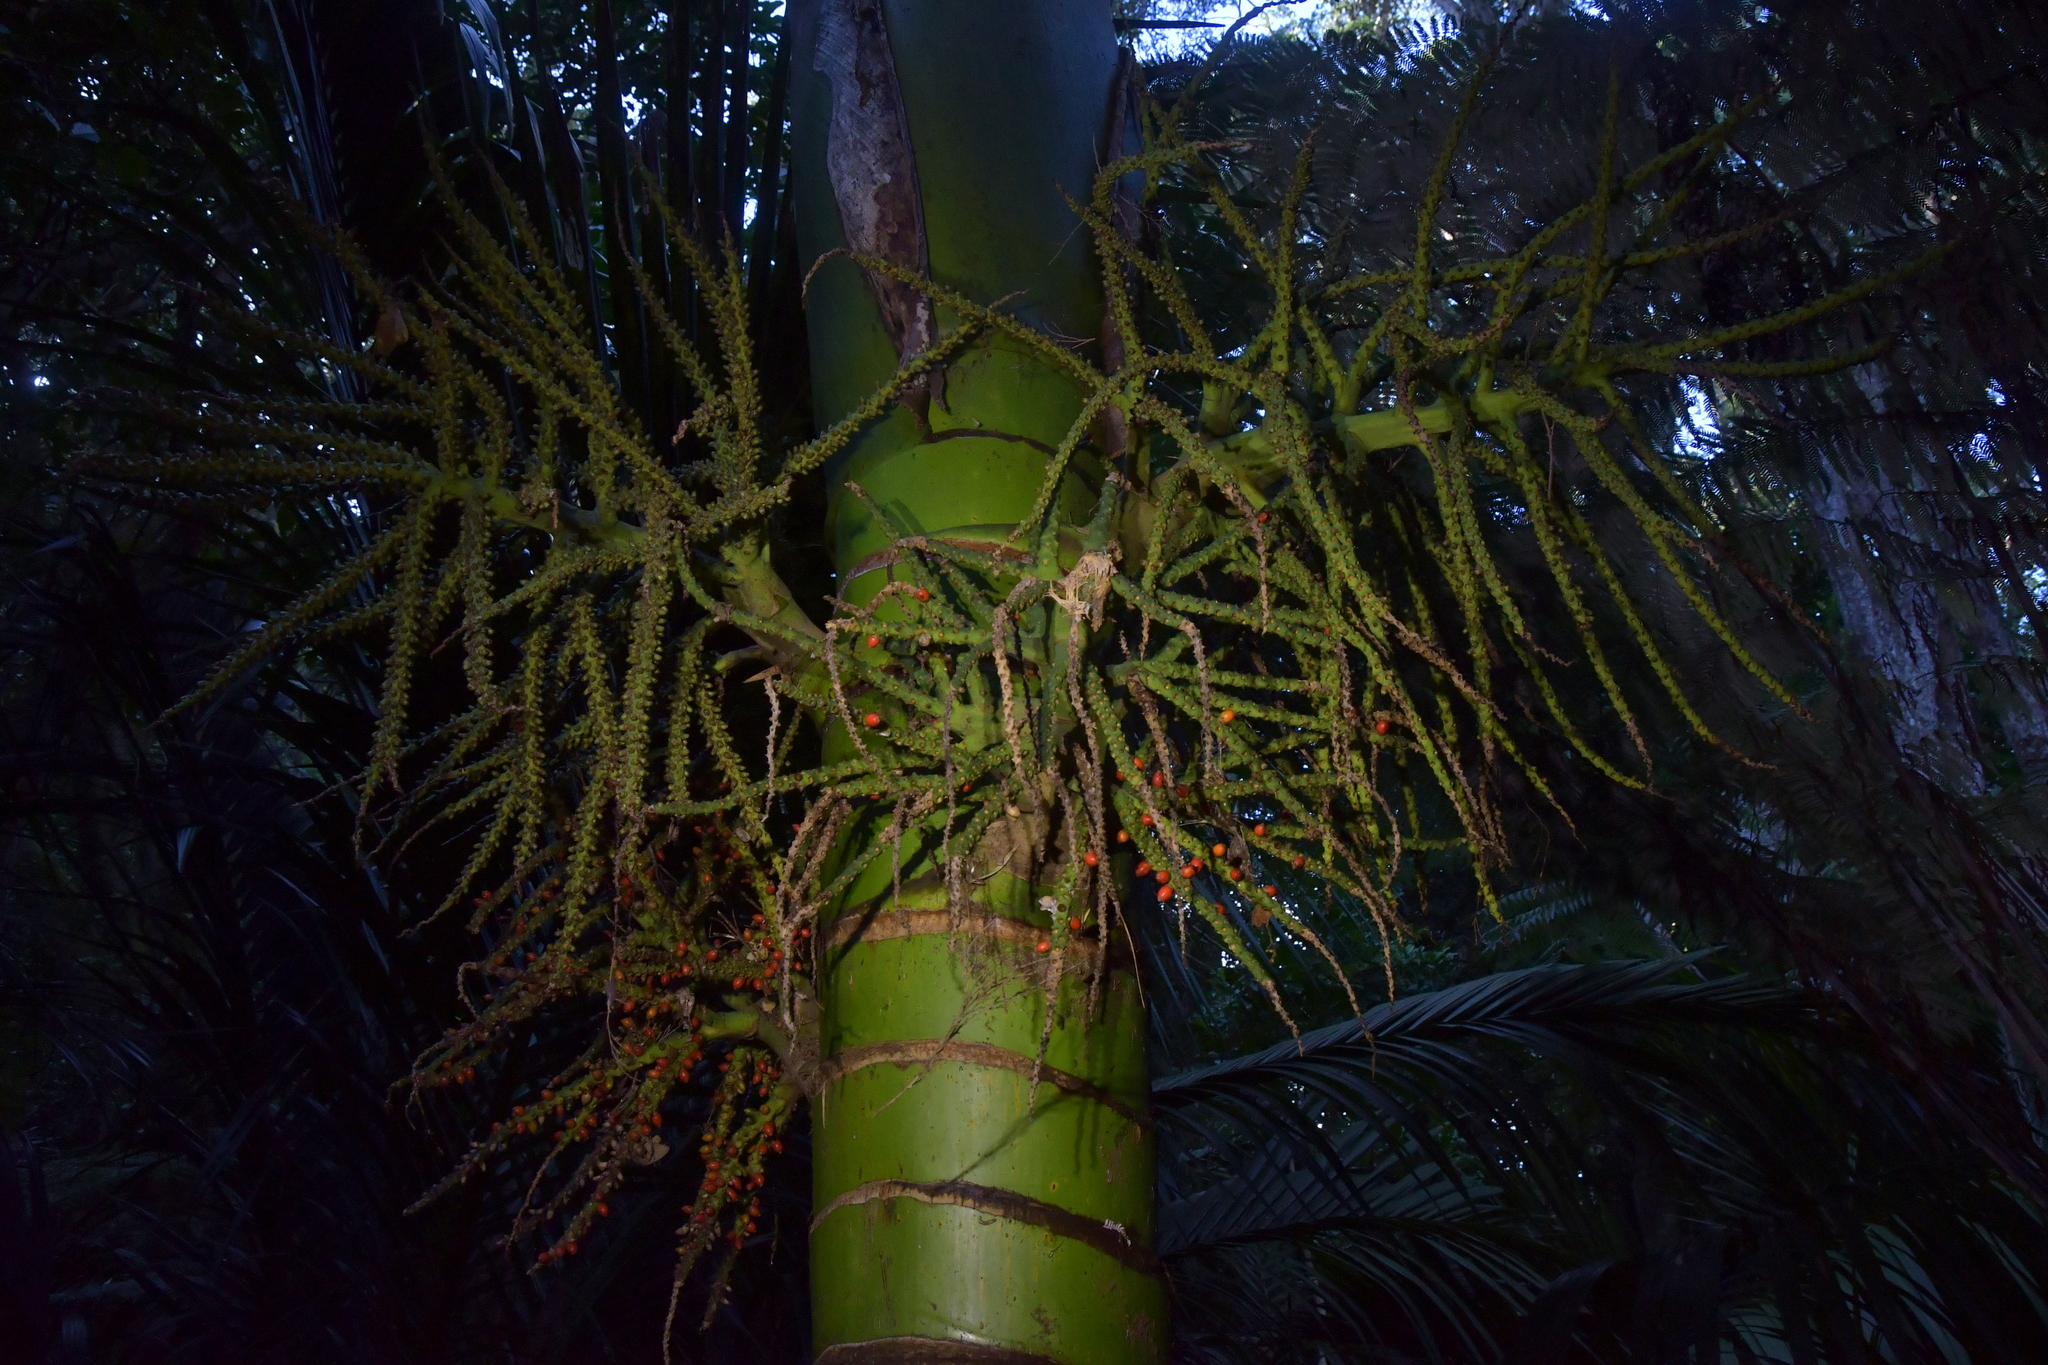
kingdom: Plantae
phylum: Tracheophyta
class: Liliopsida
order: Arecales
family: Arecaceae
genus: Rhopalostylis
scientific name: Rhopalostylis sapida
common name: Feather-duster palm
